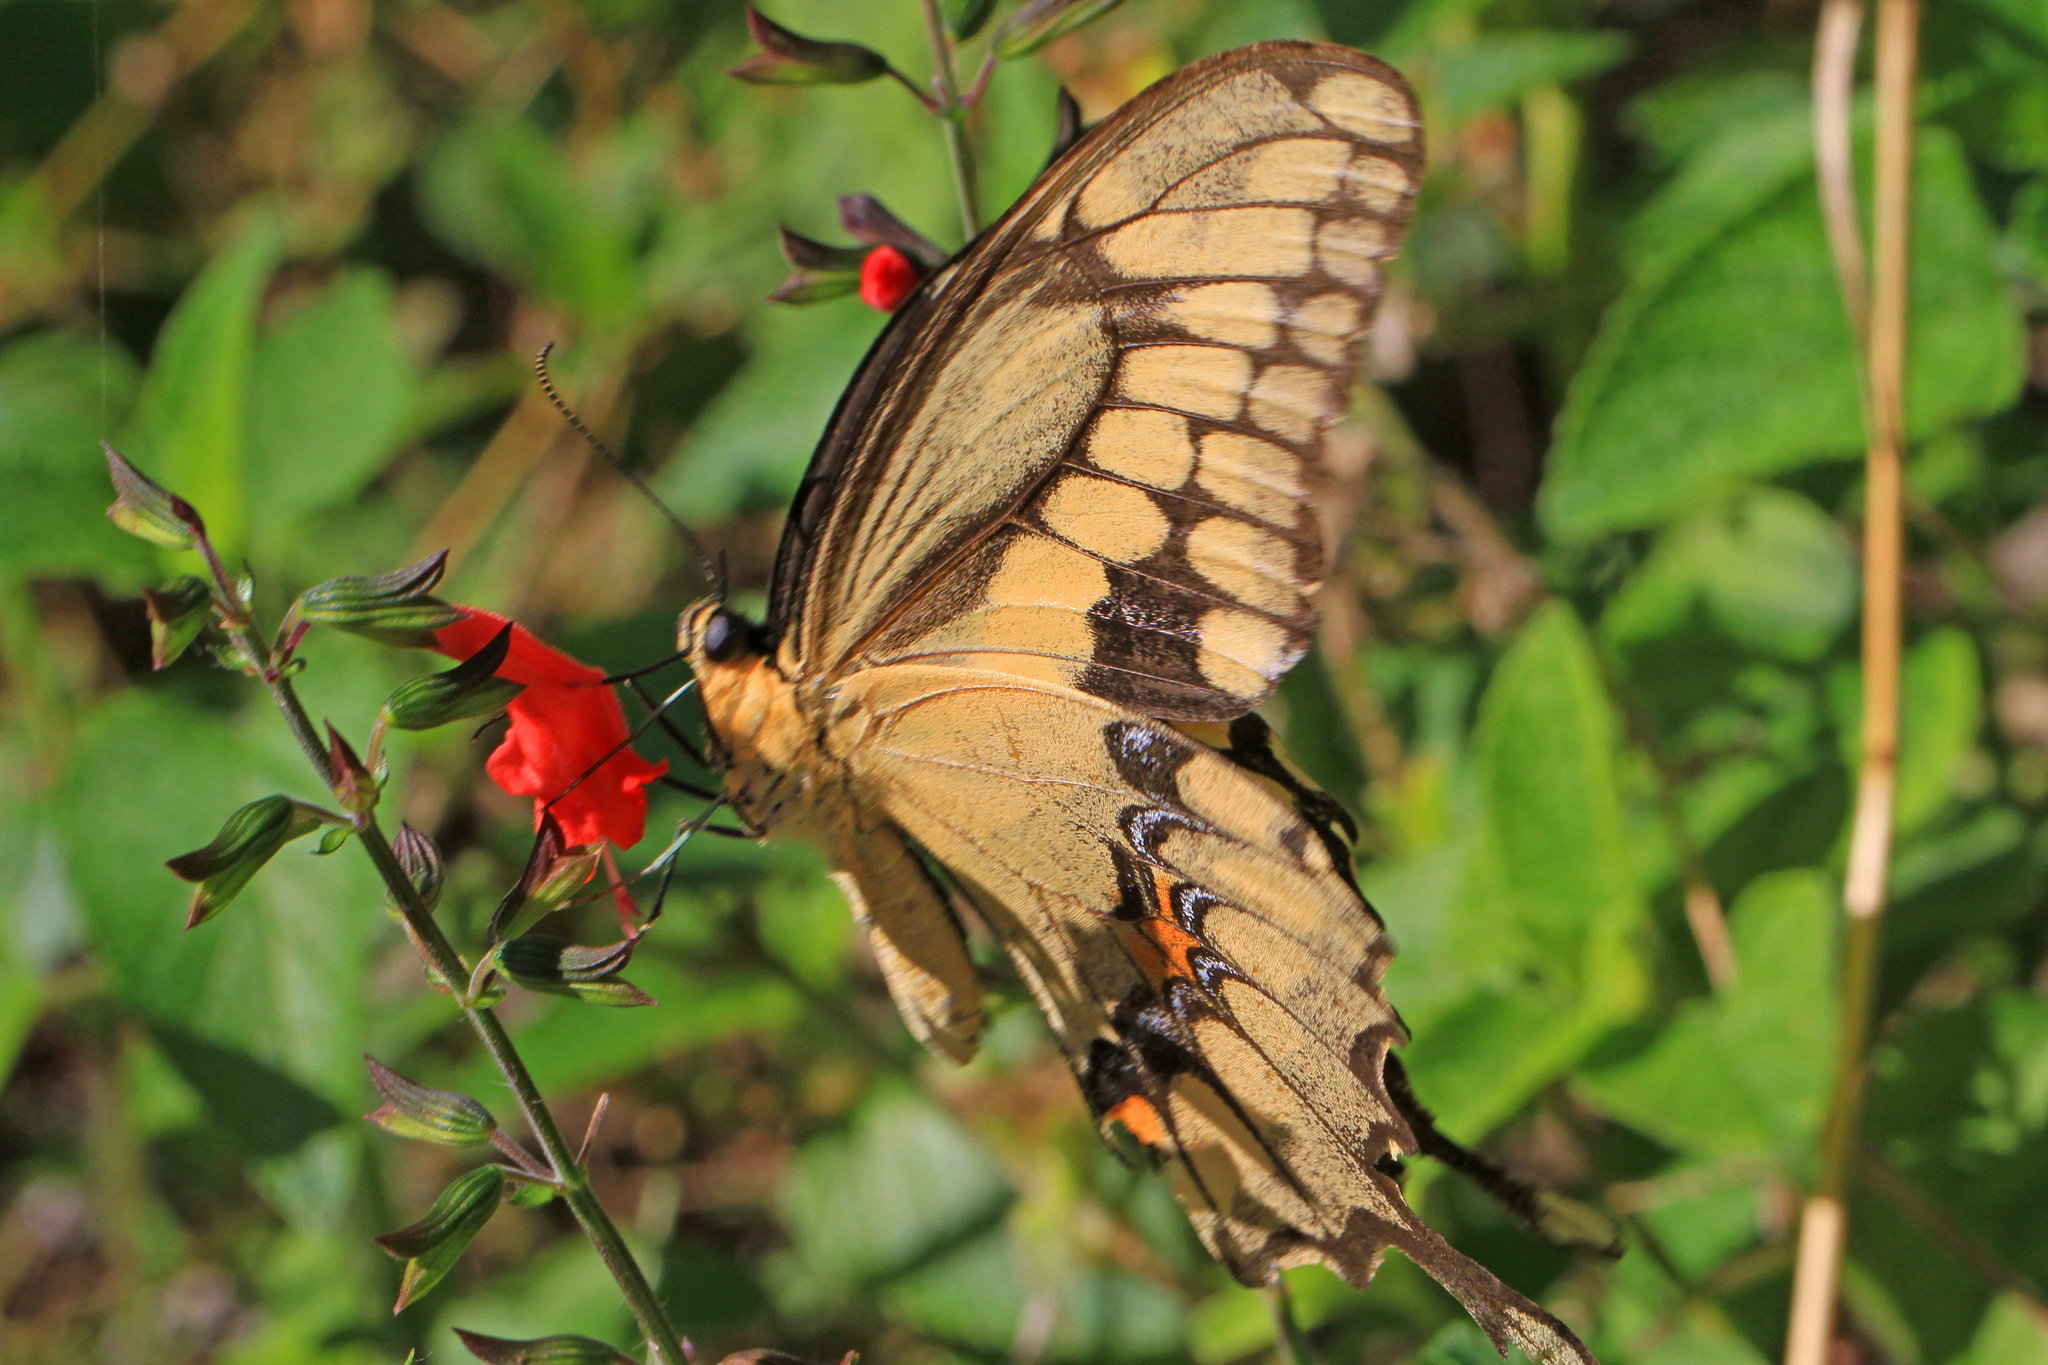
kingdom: Animalia
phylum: Arthropoda
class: Insecta
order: Lepidoptera
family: Papilionidae
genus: Papilio
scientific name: Papilio cresphontes
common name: Giant swallowtail
